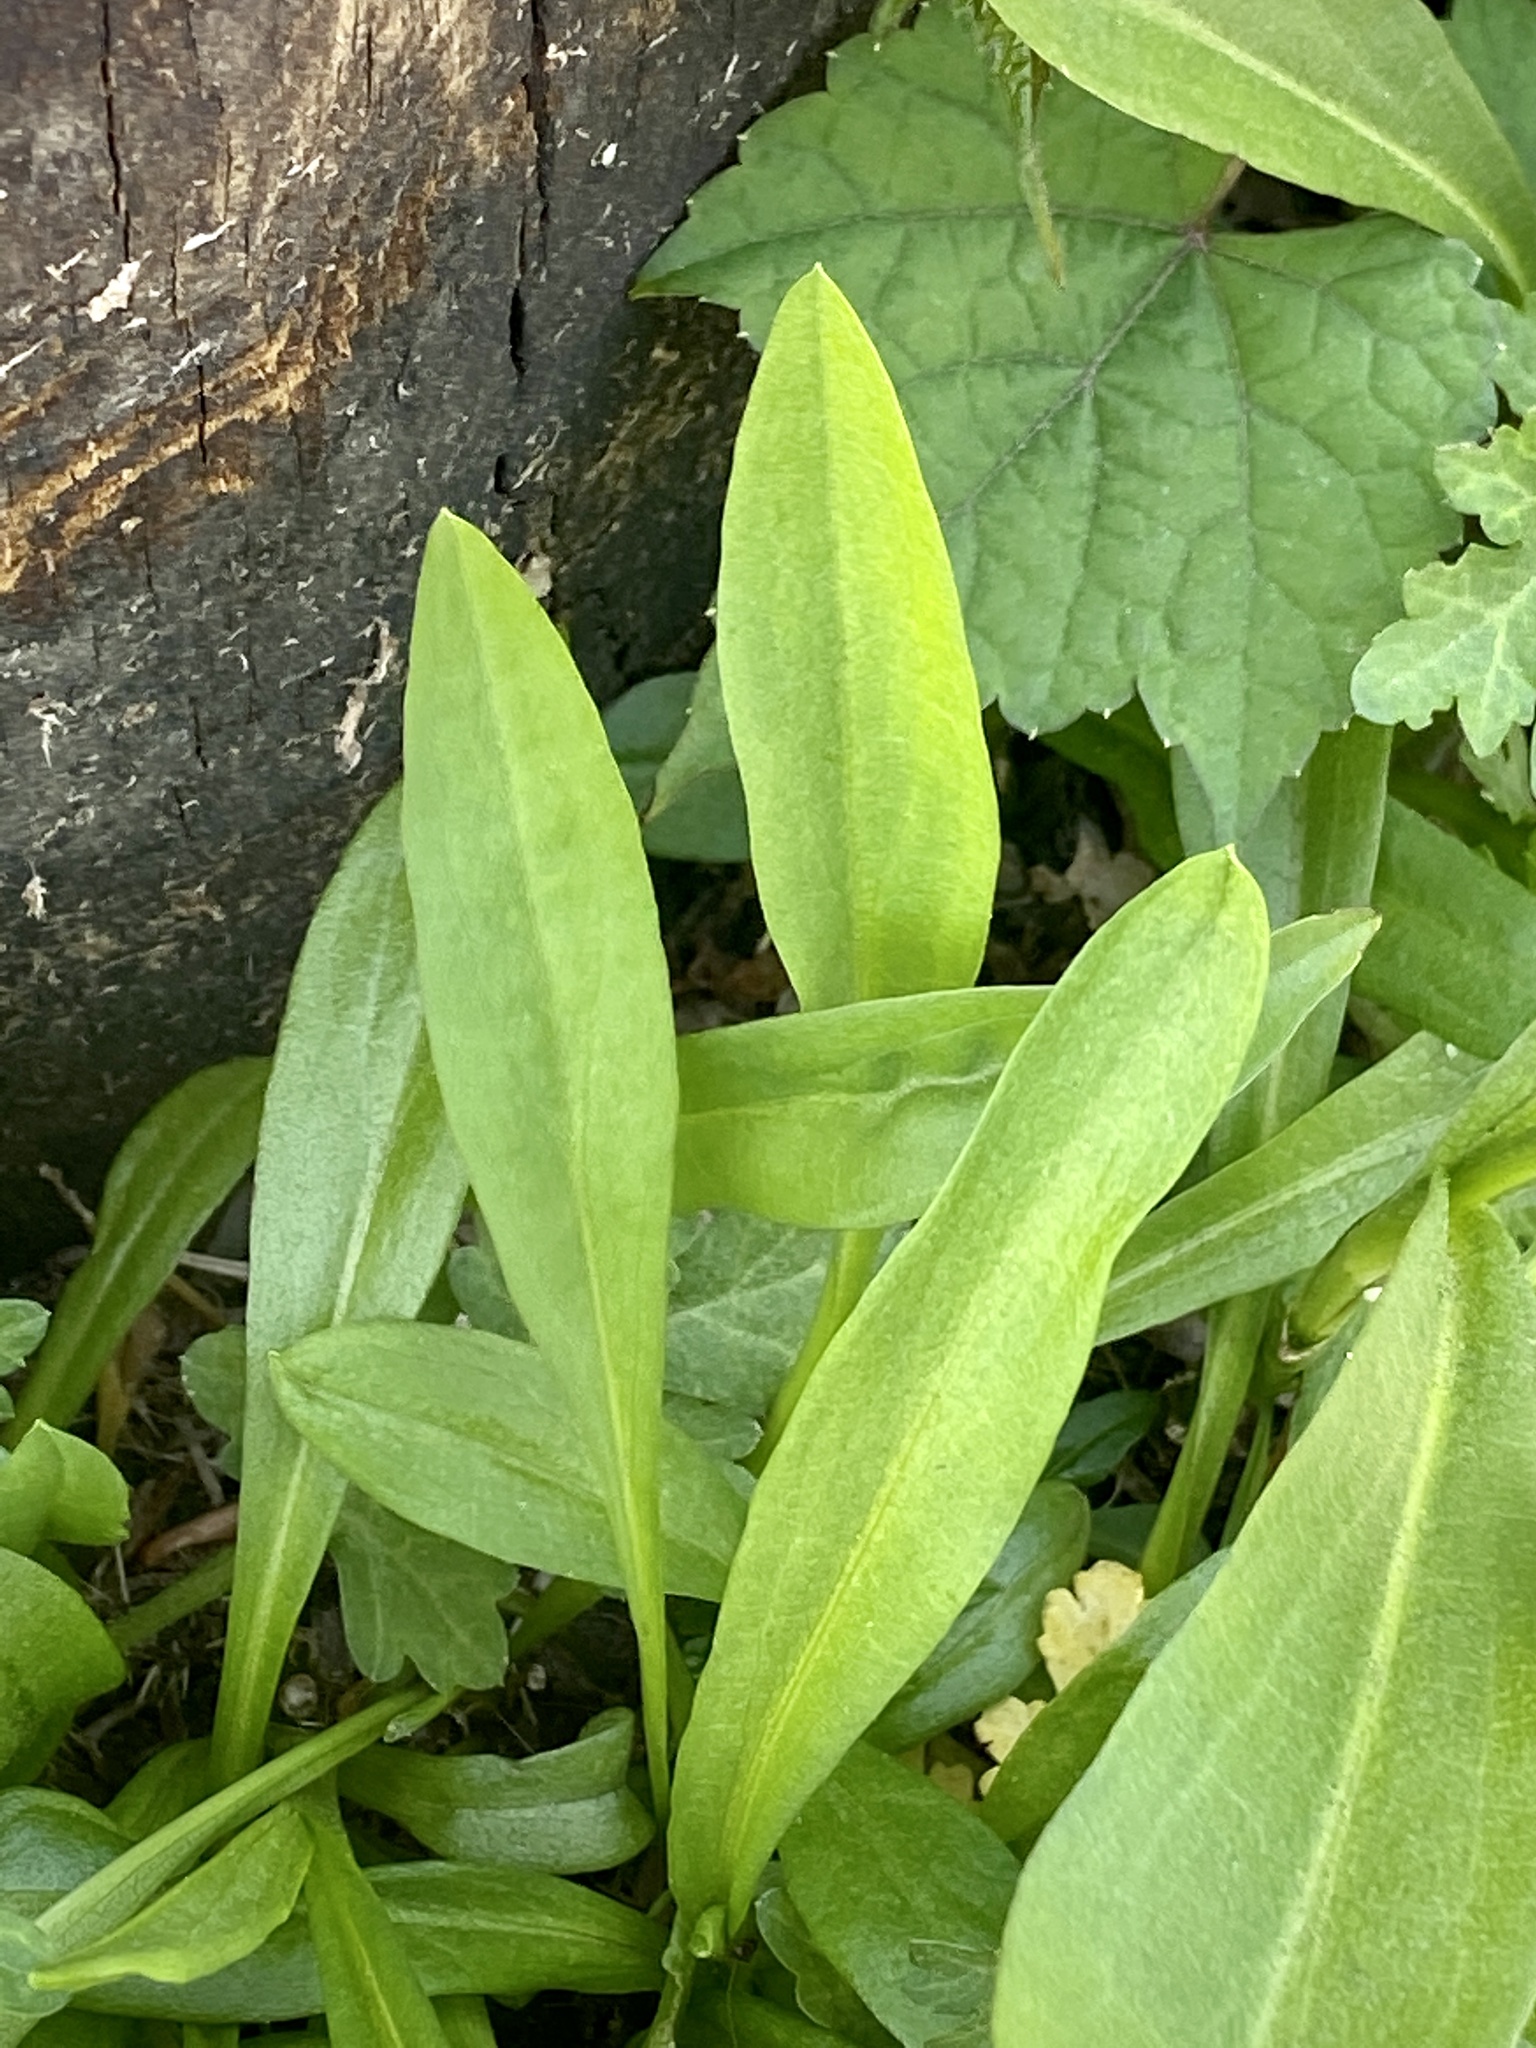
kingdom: Plantae
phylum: Tracheophyta
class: Magnoliopsida
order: Asterales
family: Asteraceae
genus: Solidago
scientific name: Solidago sempervirens
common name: Salt-marsh goldenrod
